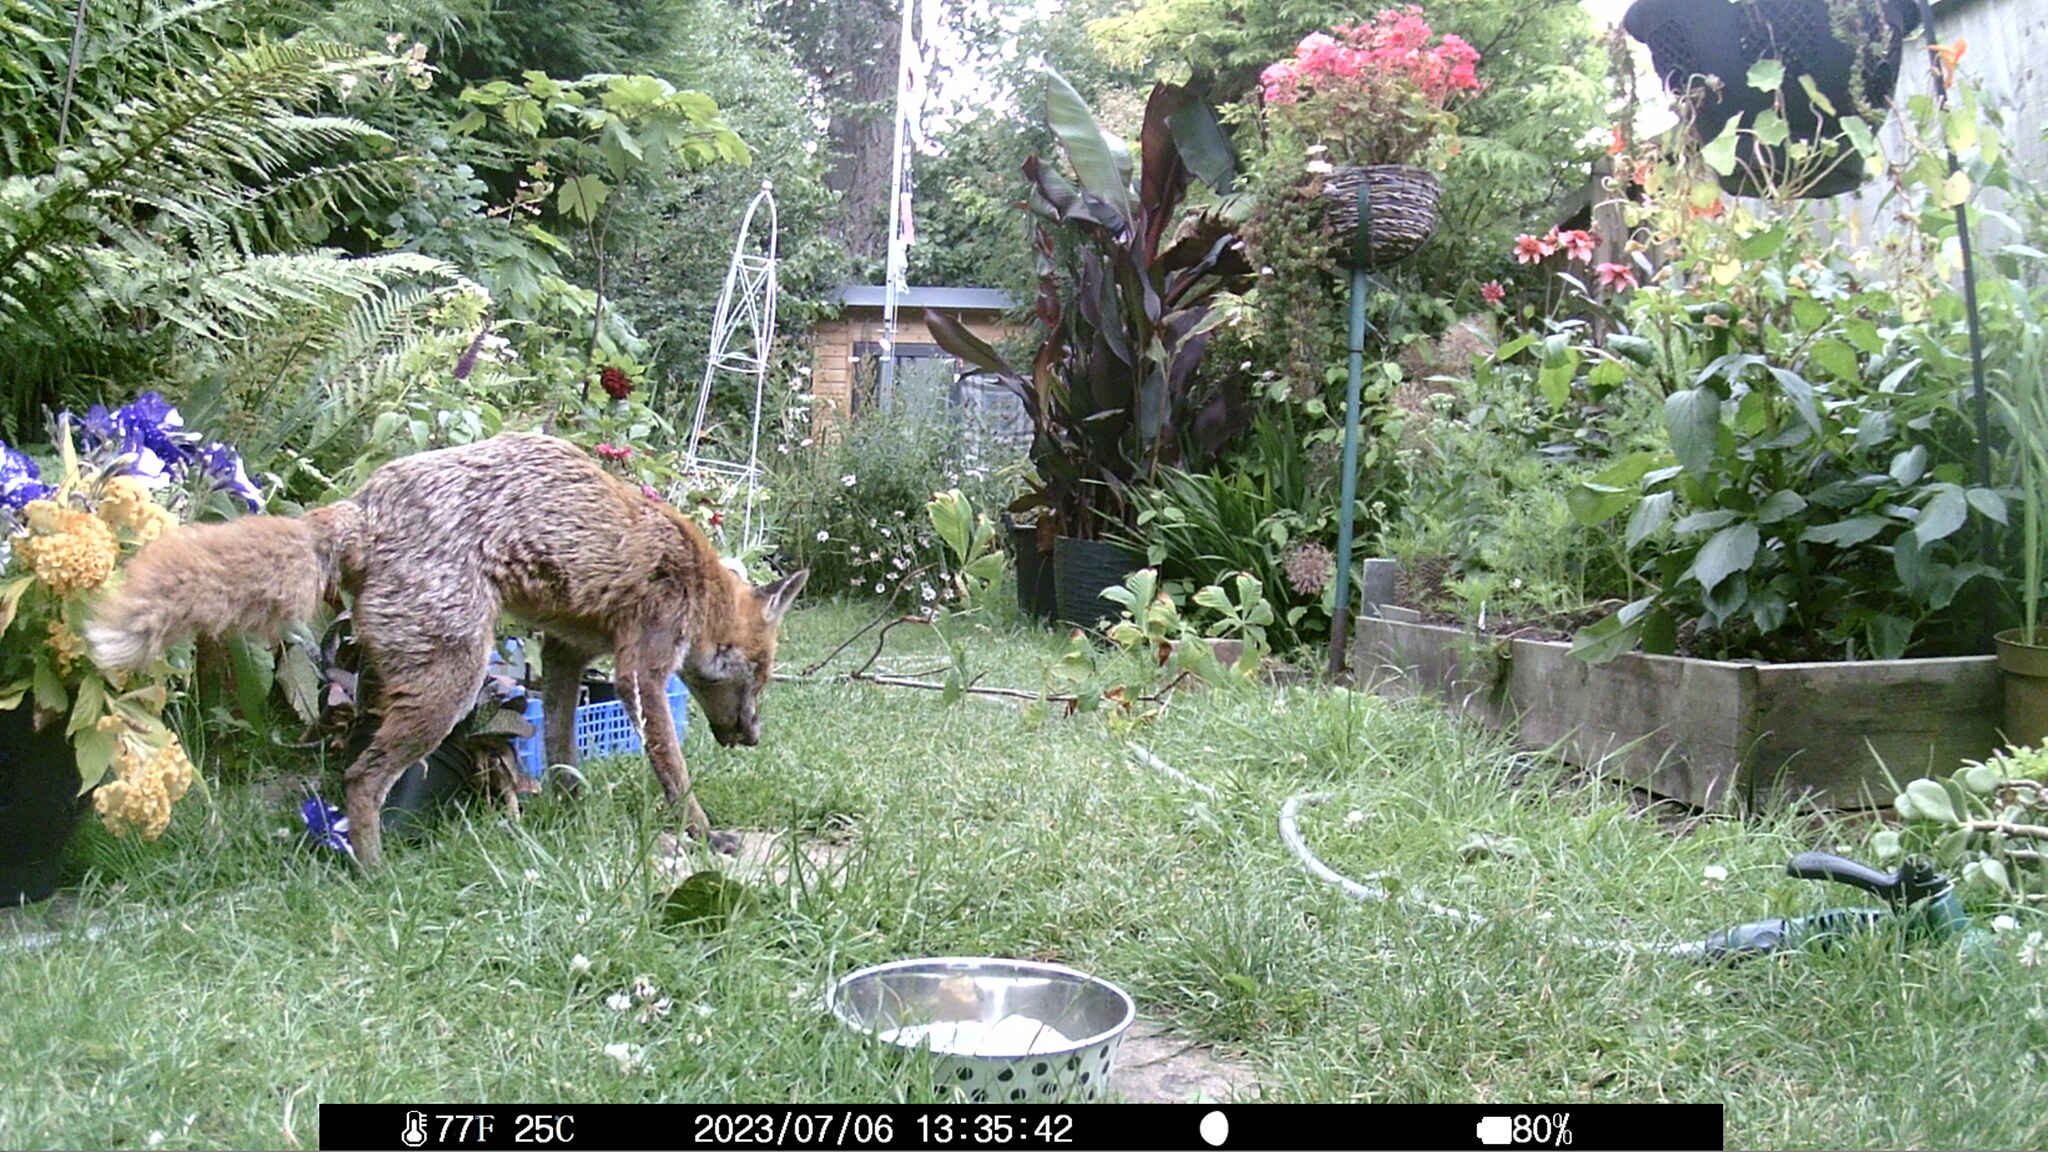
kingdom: Animalia
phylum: Chordata
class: Mammalia
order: Carnivora
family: Canidae
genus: Vulpes
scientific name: Vulpes vulpes
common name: Red fox
